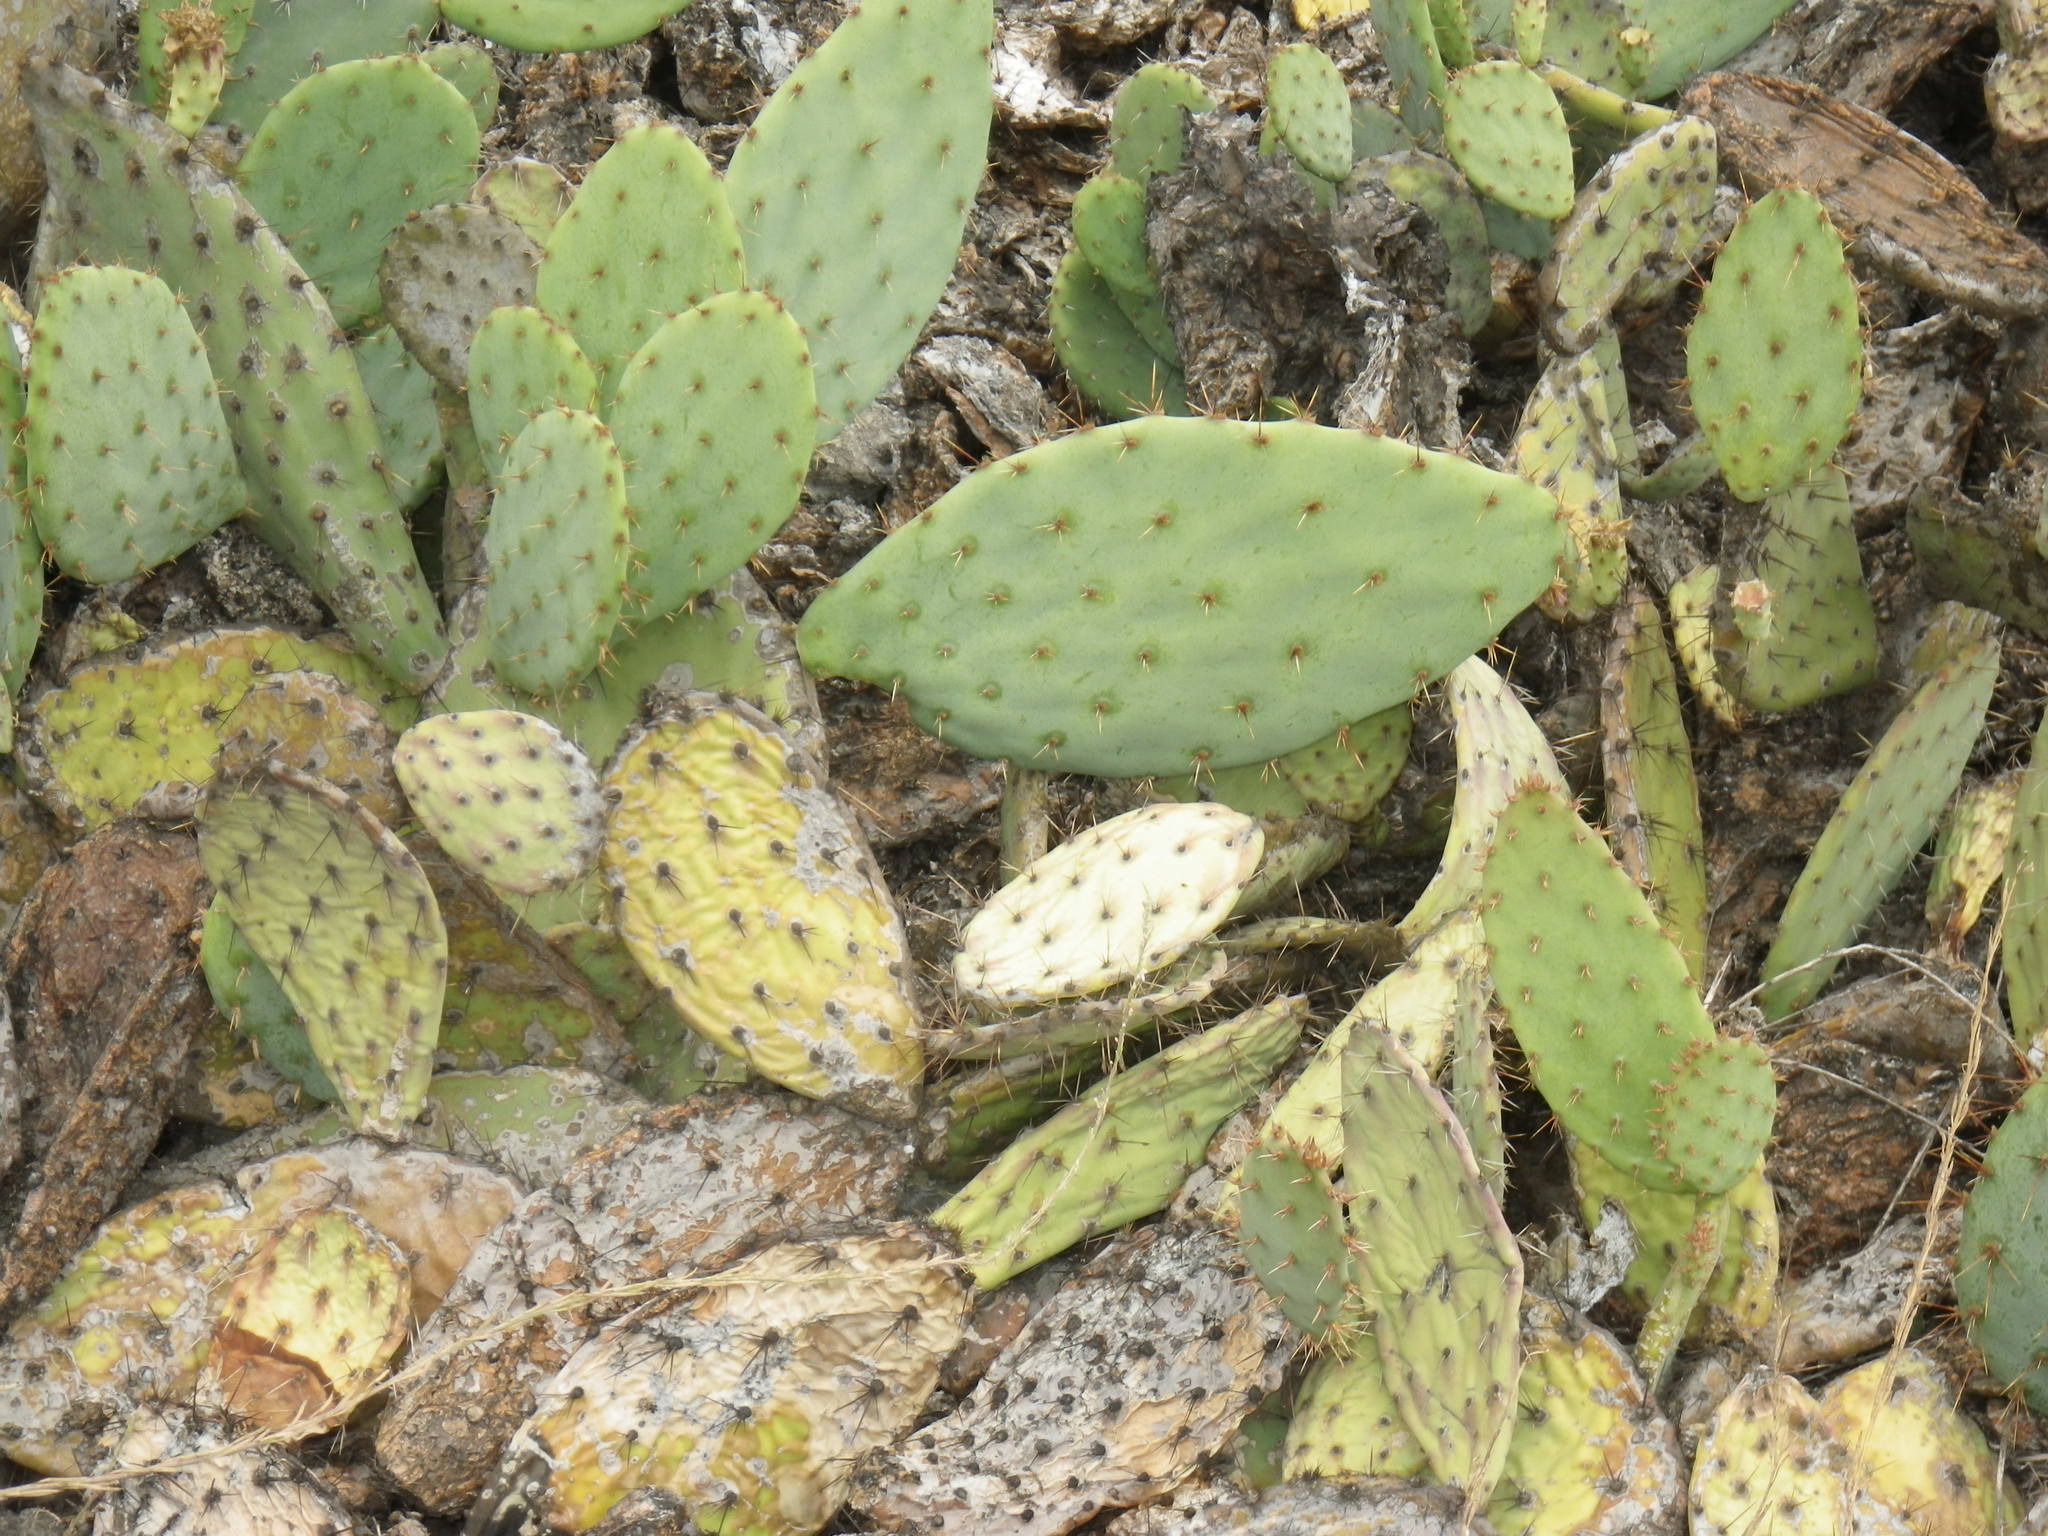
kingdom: Plantae
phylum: Tracheophyta
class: Magnoliopsida
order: Caryophyllales
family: Cactaceae
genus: Opuntia
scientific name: Opuntia littoralis
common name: Coastal prickly-pear
